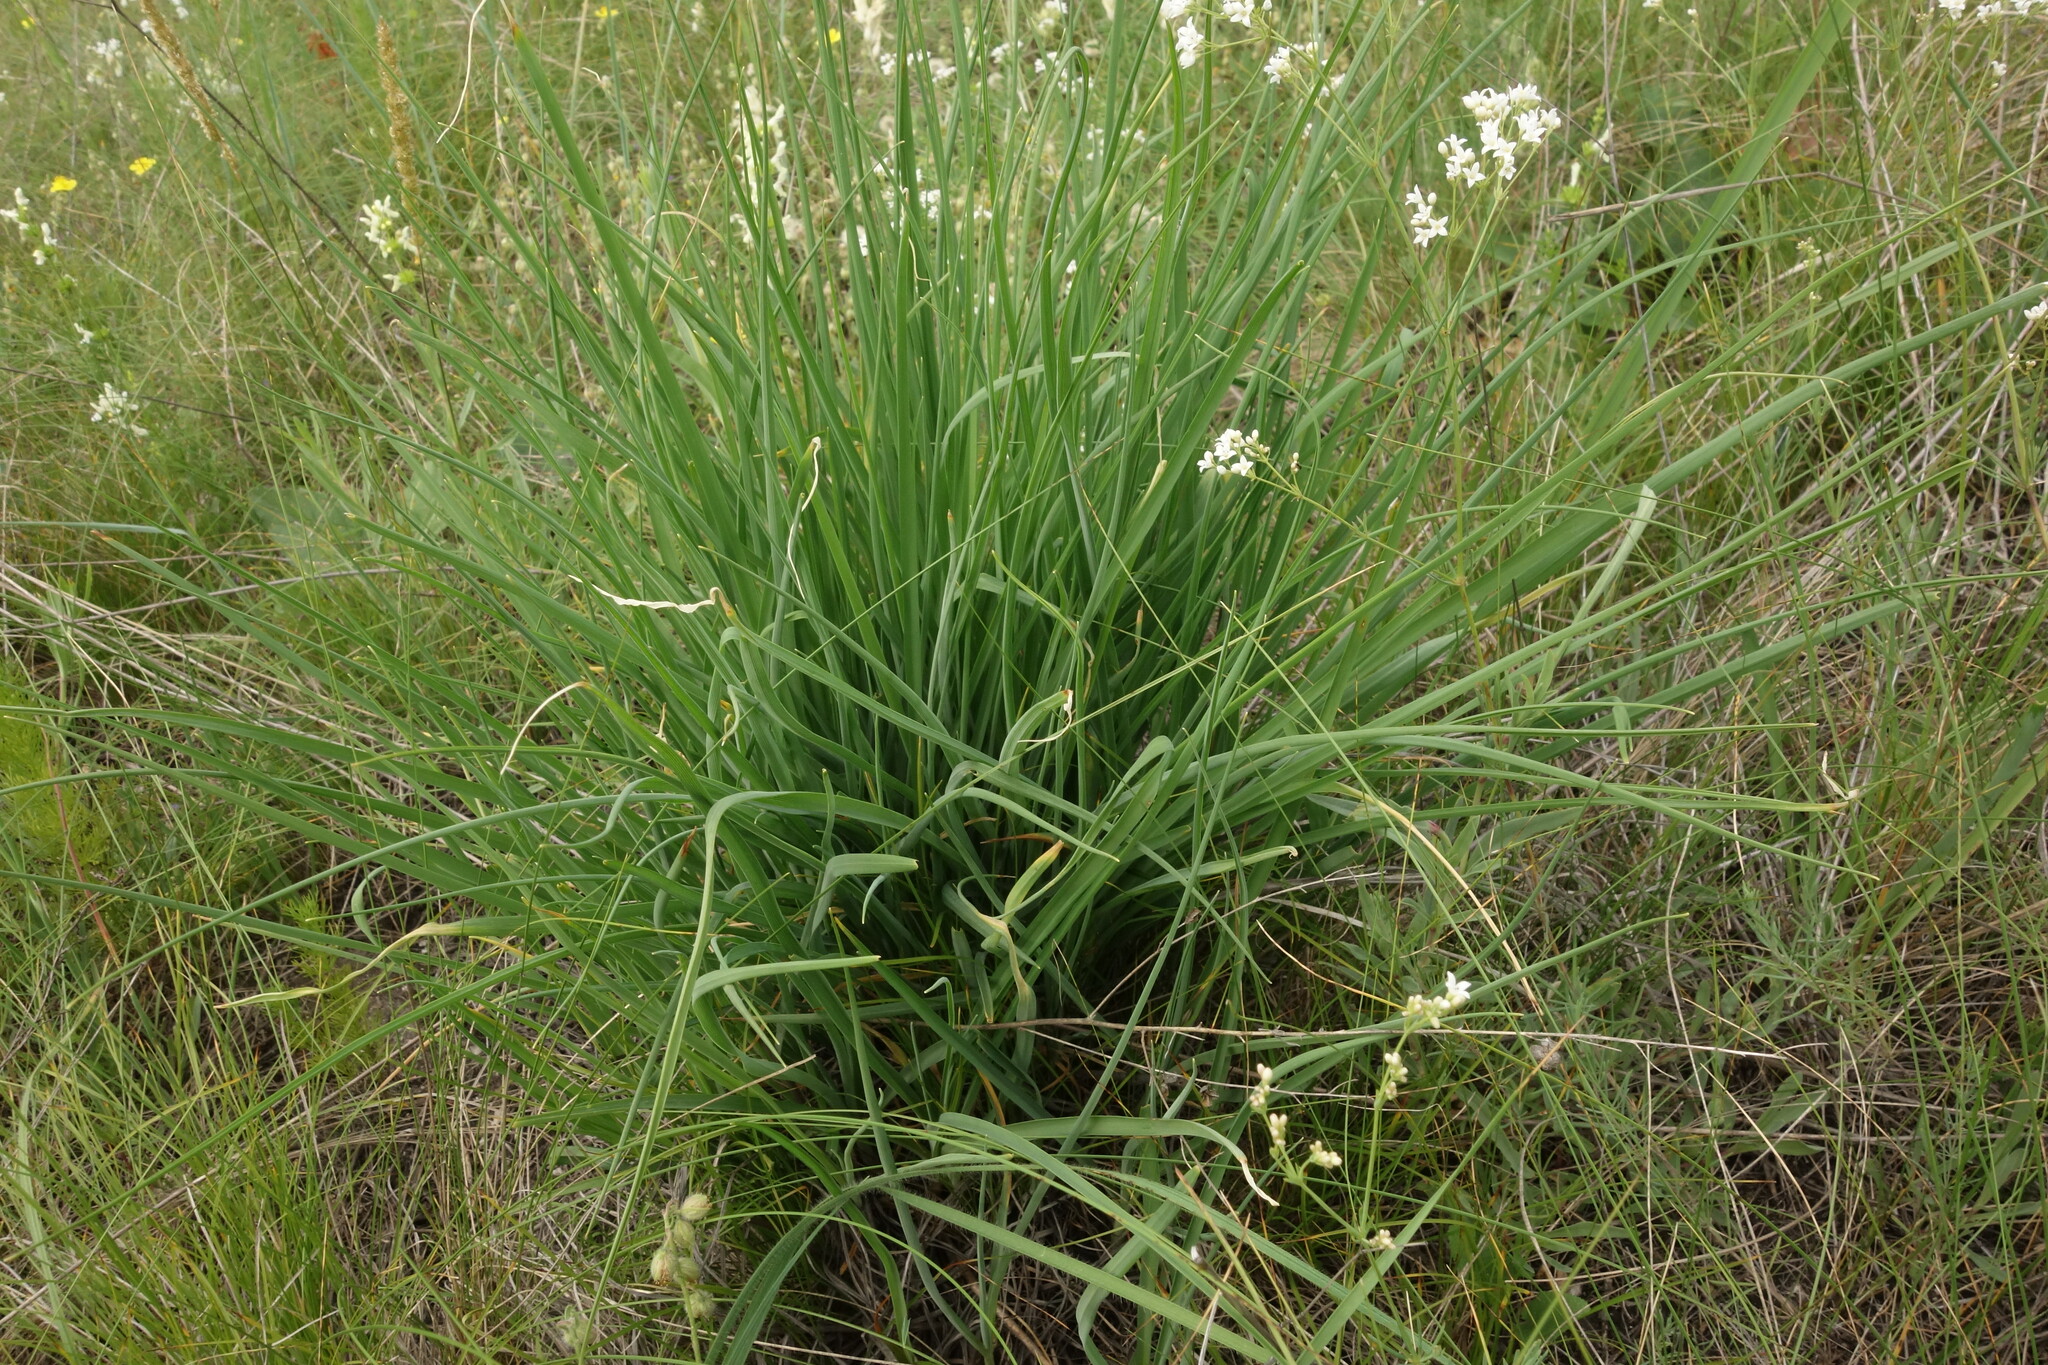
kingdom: Plantae
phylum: Tracheophyta
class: Liliopsida
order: Asparagales
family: Asparagaceae
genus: Anthericum
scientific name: Anthericum ramosum
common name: Branched st. bernard's-lily
